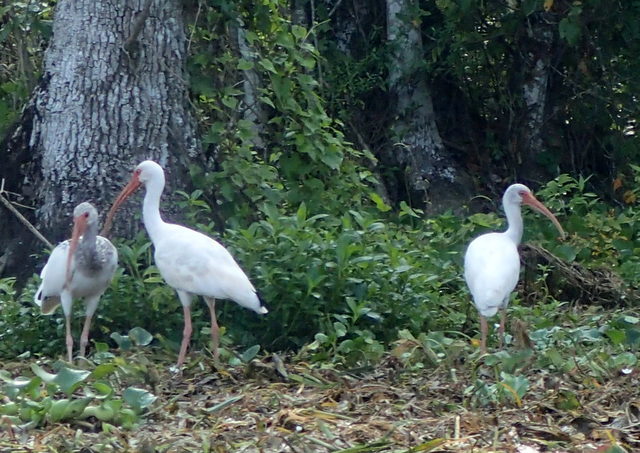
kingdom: Animalia
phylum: Chordata
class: Aves
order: Pelecaniformes
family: Threskiornithidae
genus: Eudocimus
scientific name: Eudocimus albus
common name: White ibis
